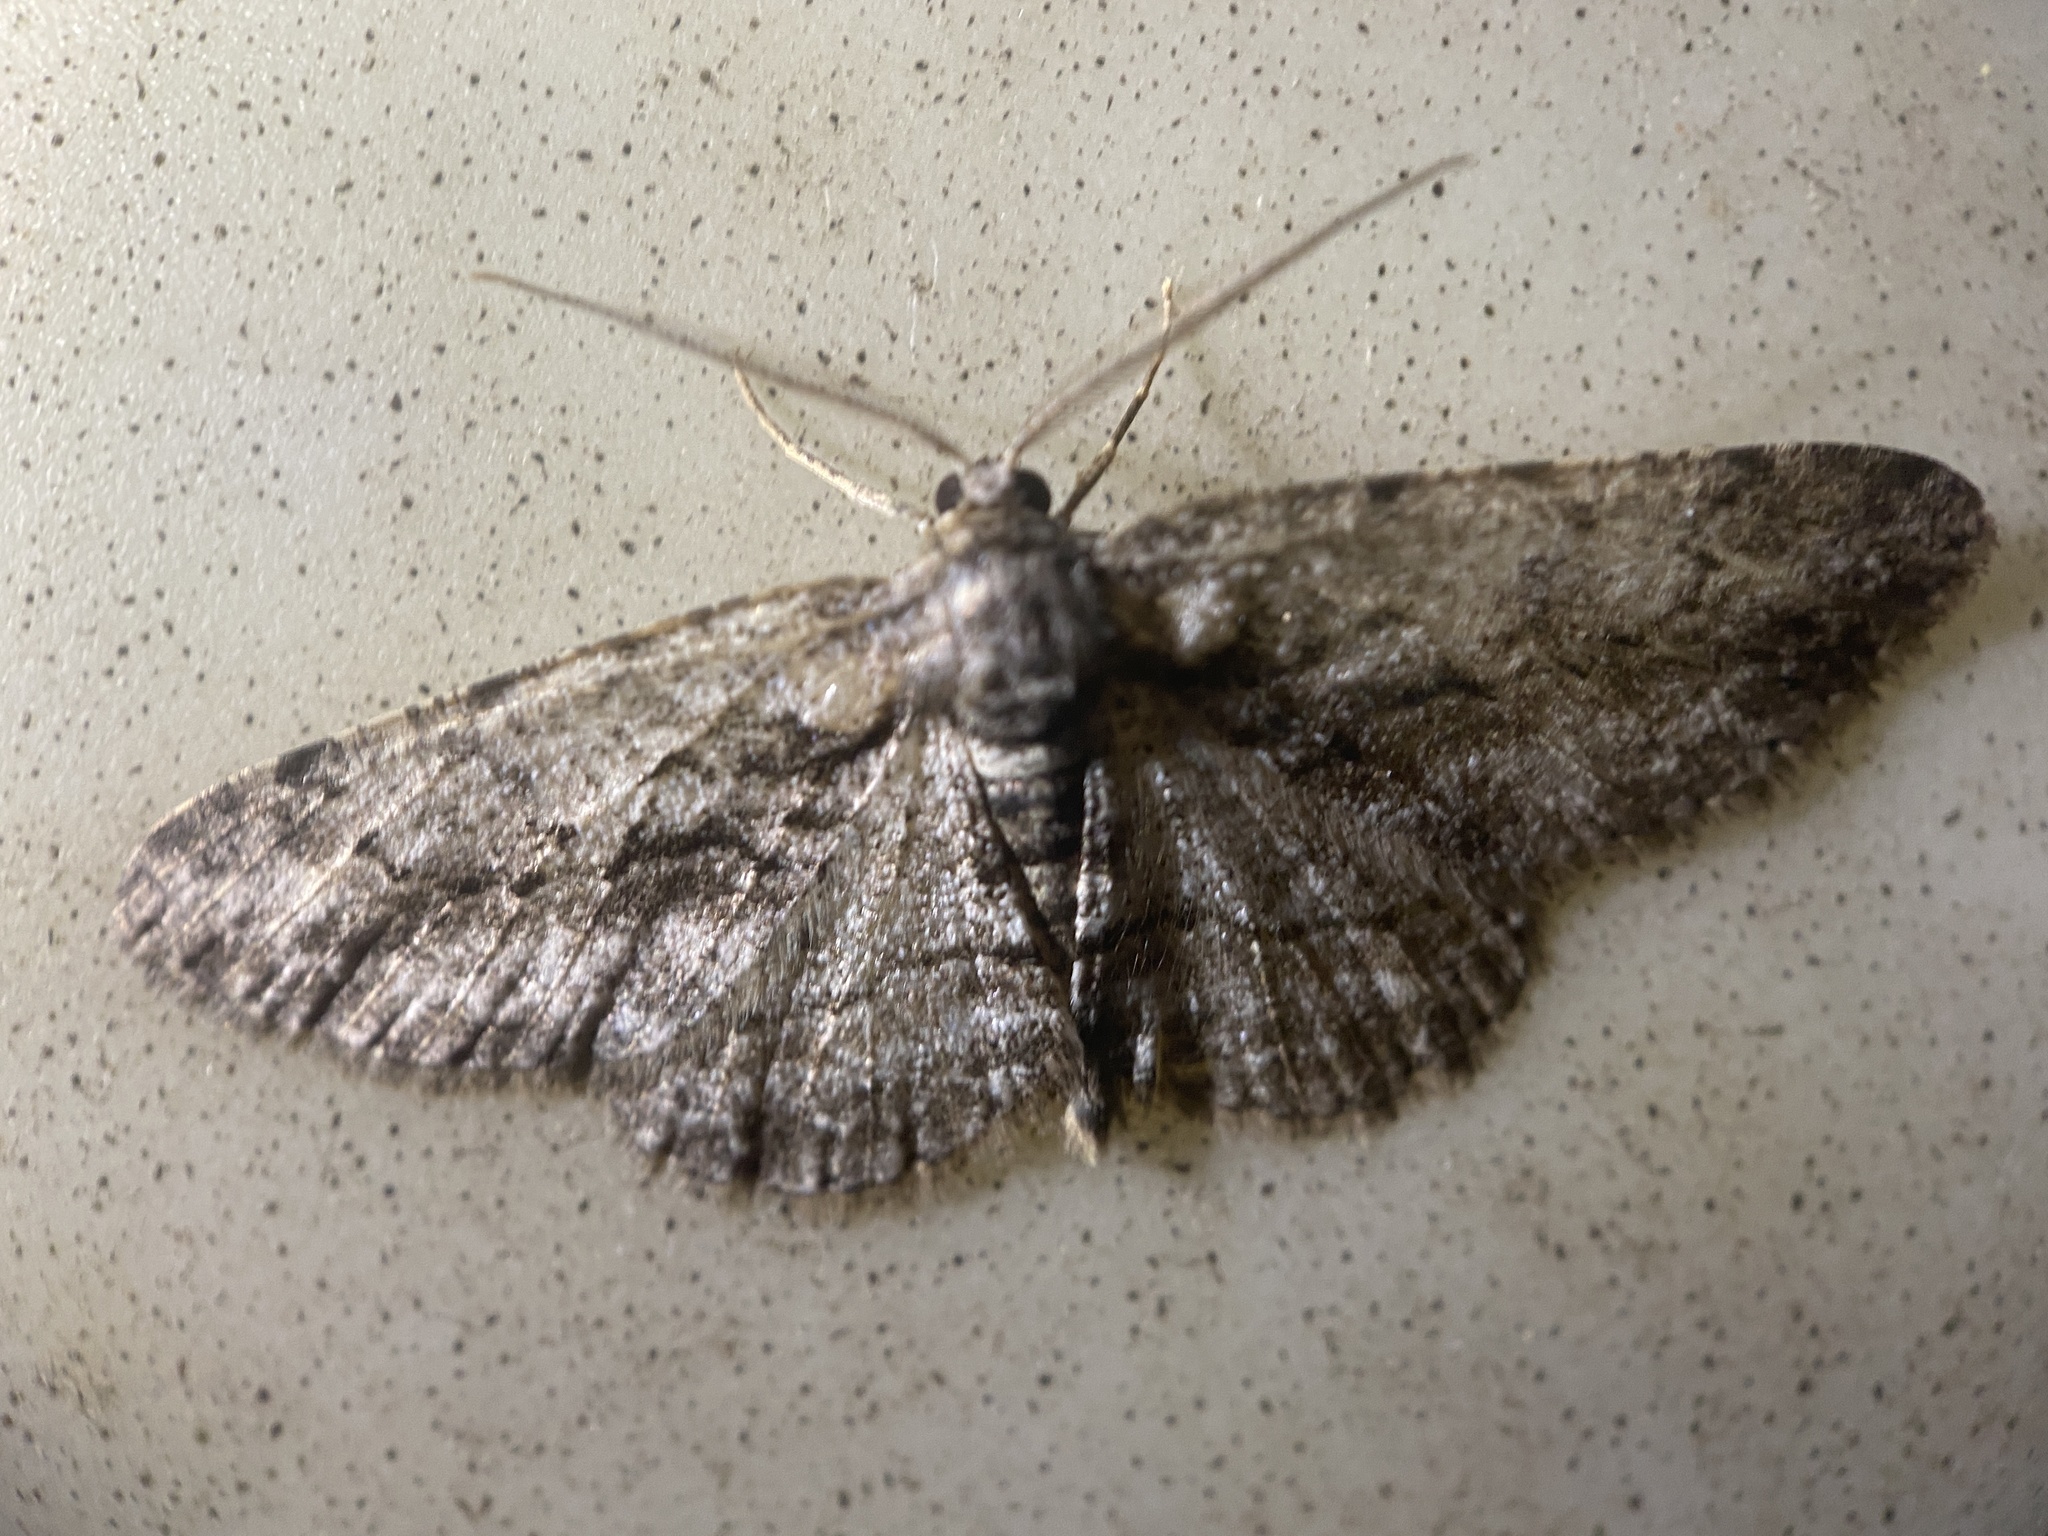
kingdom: Animalia
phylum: Arthropoda
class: Insecta
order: Lepidoptera
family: Geometridae
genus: Anavitrinella
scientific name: Anavitrinella pampinaria
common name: Common gray
